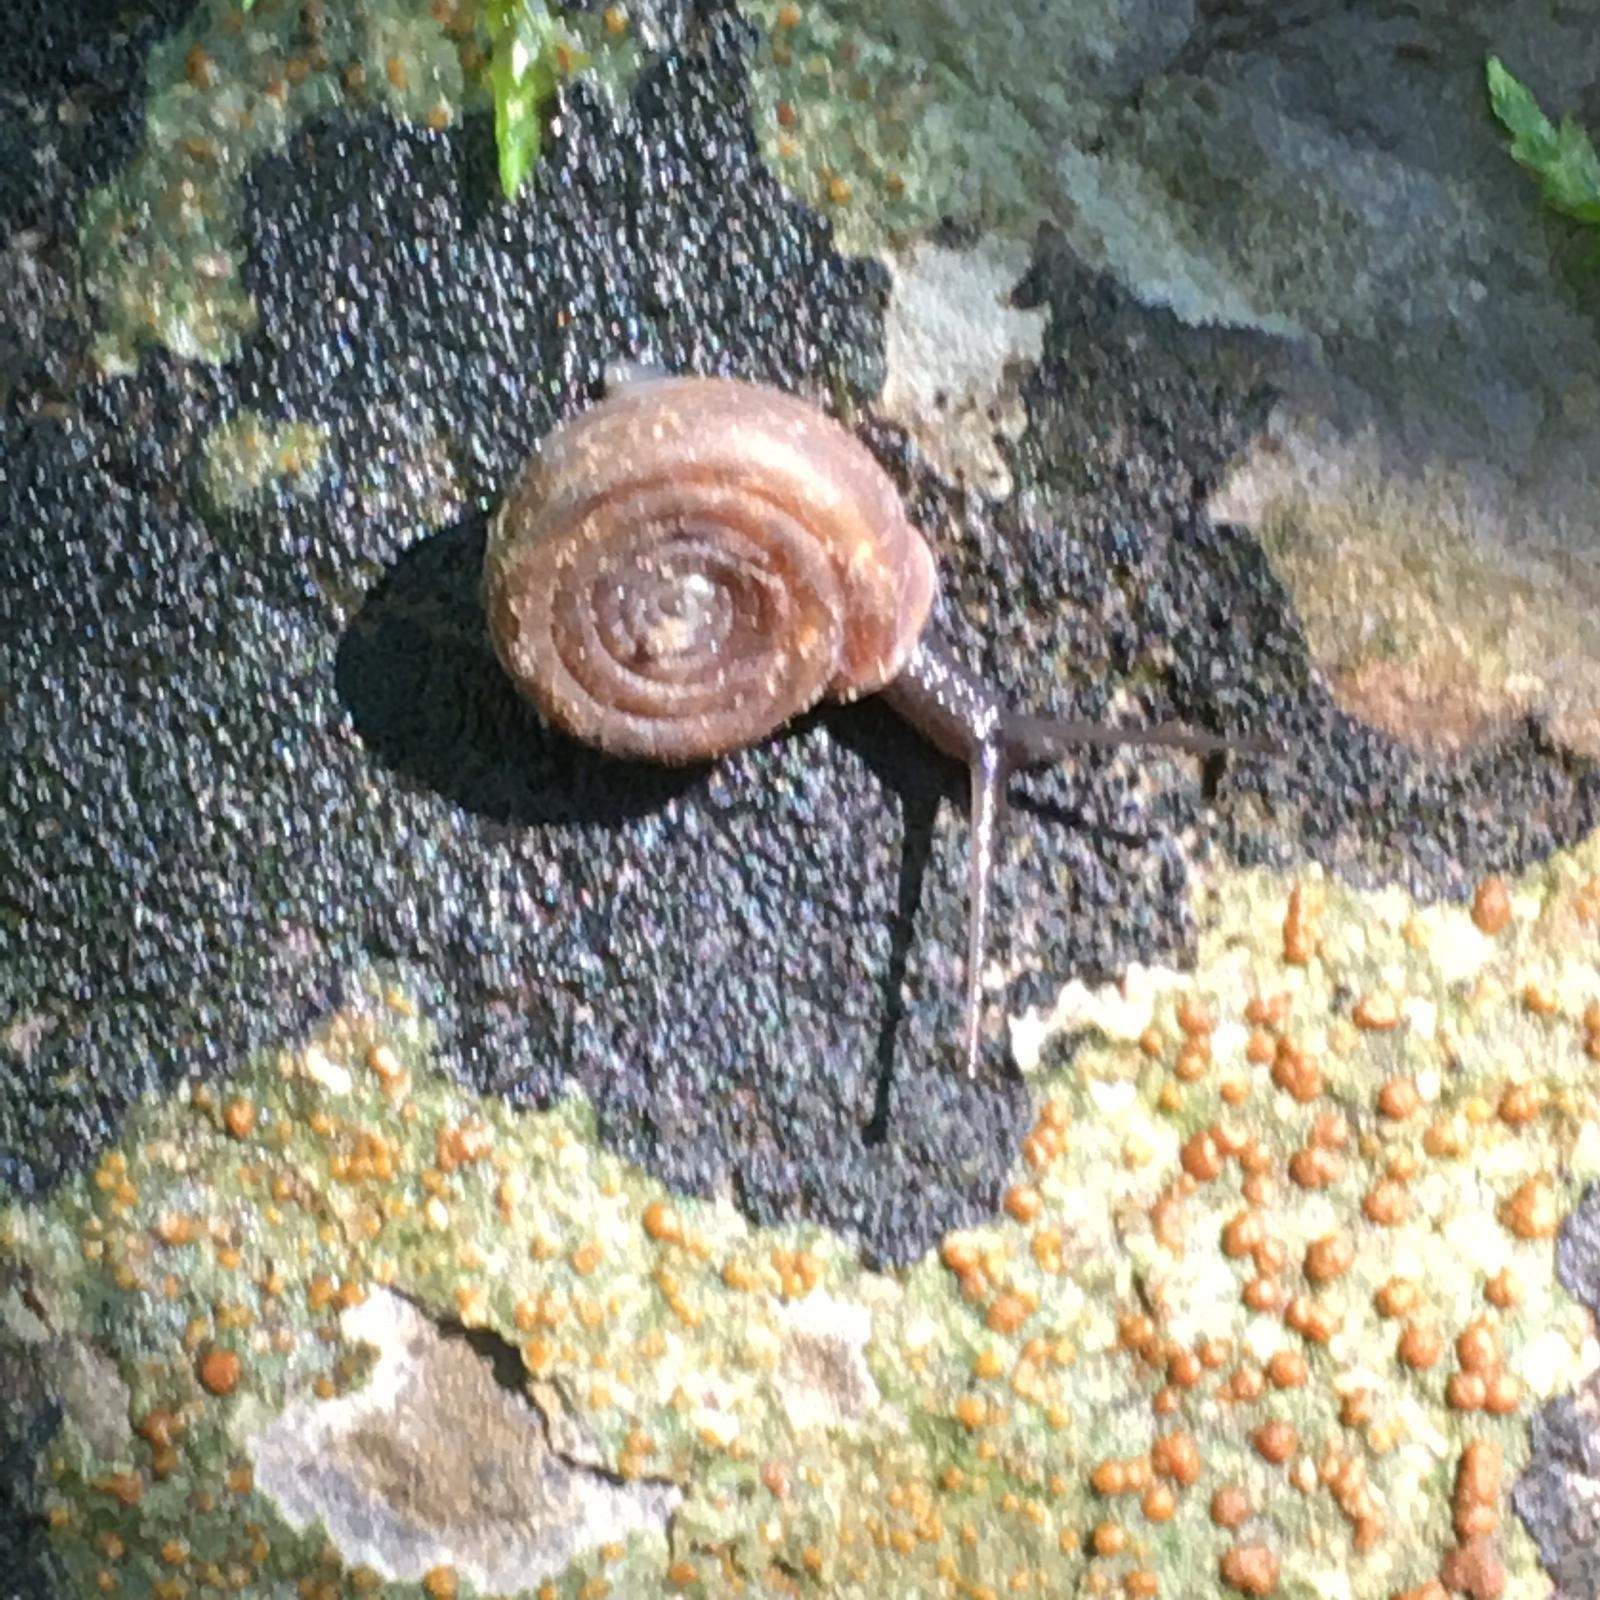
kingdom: Animalia
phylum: Mollusca
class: Gastropoda
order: Stylommatophora
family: Helicodontidae
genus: Helicodonta
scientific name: Helicodonta angigyra
